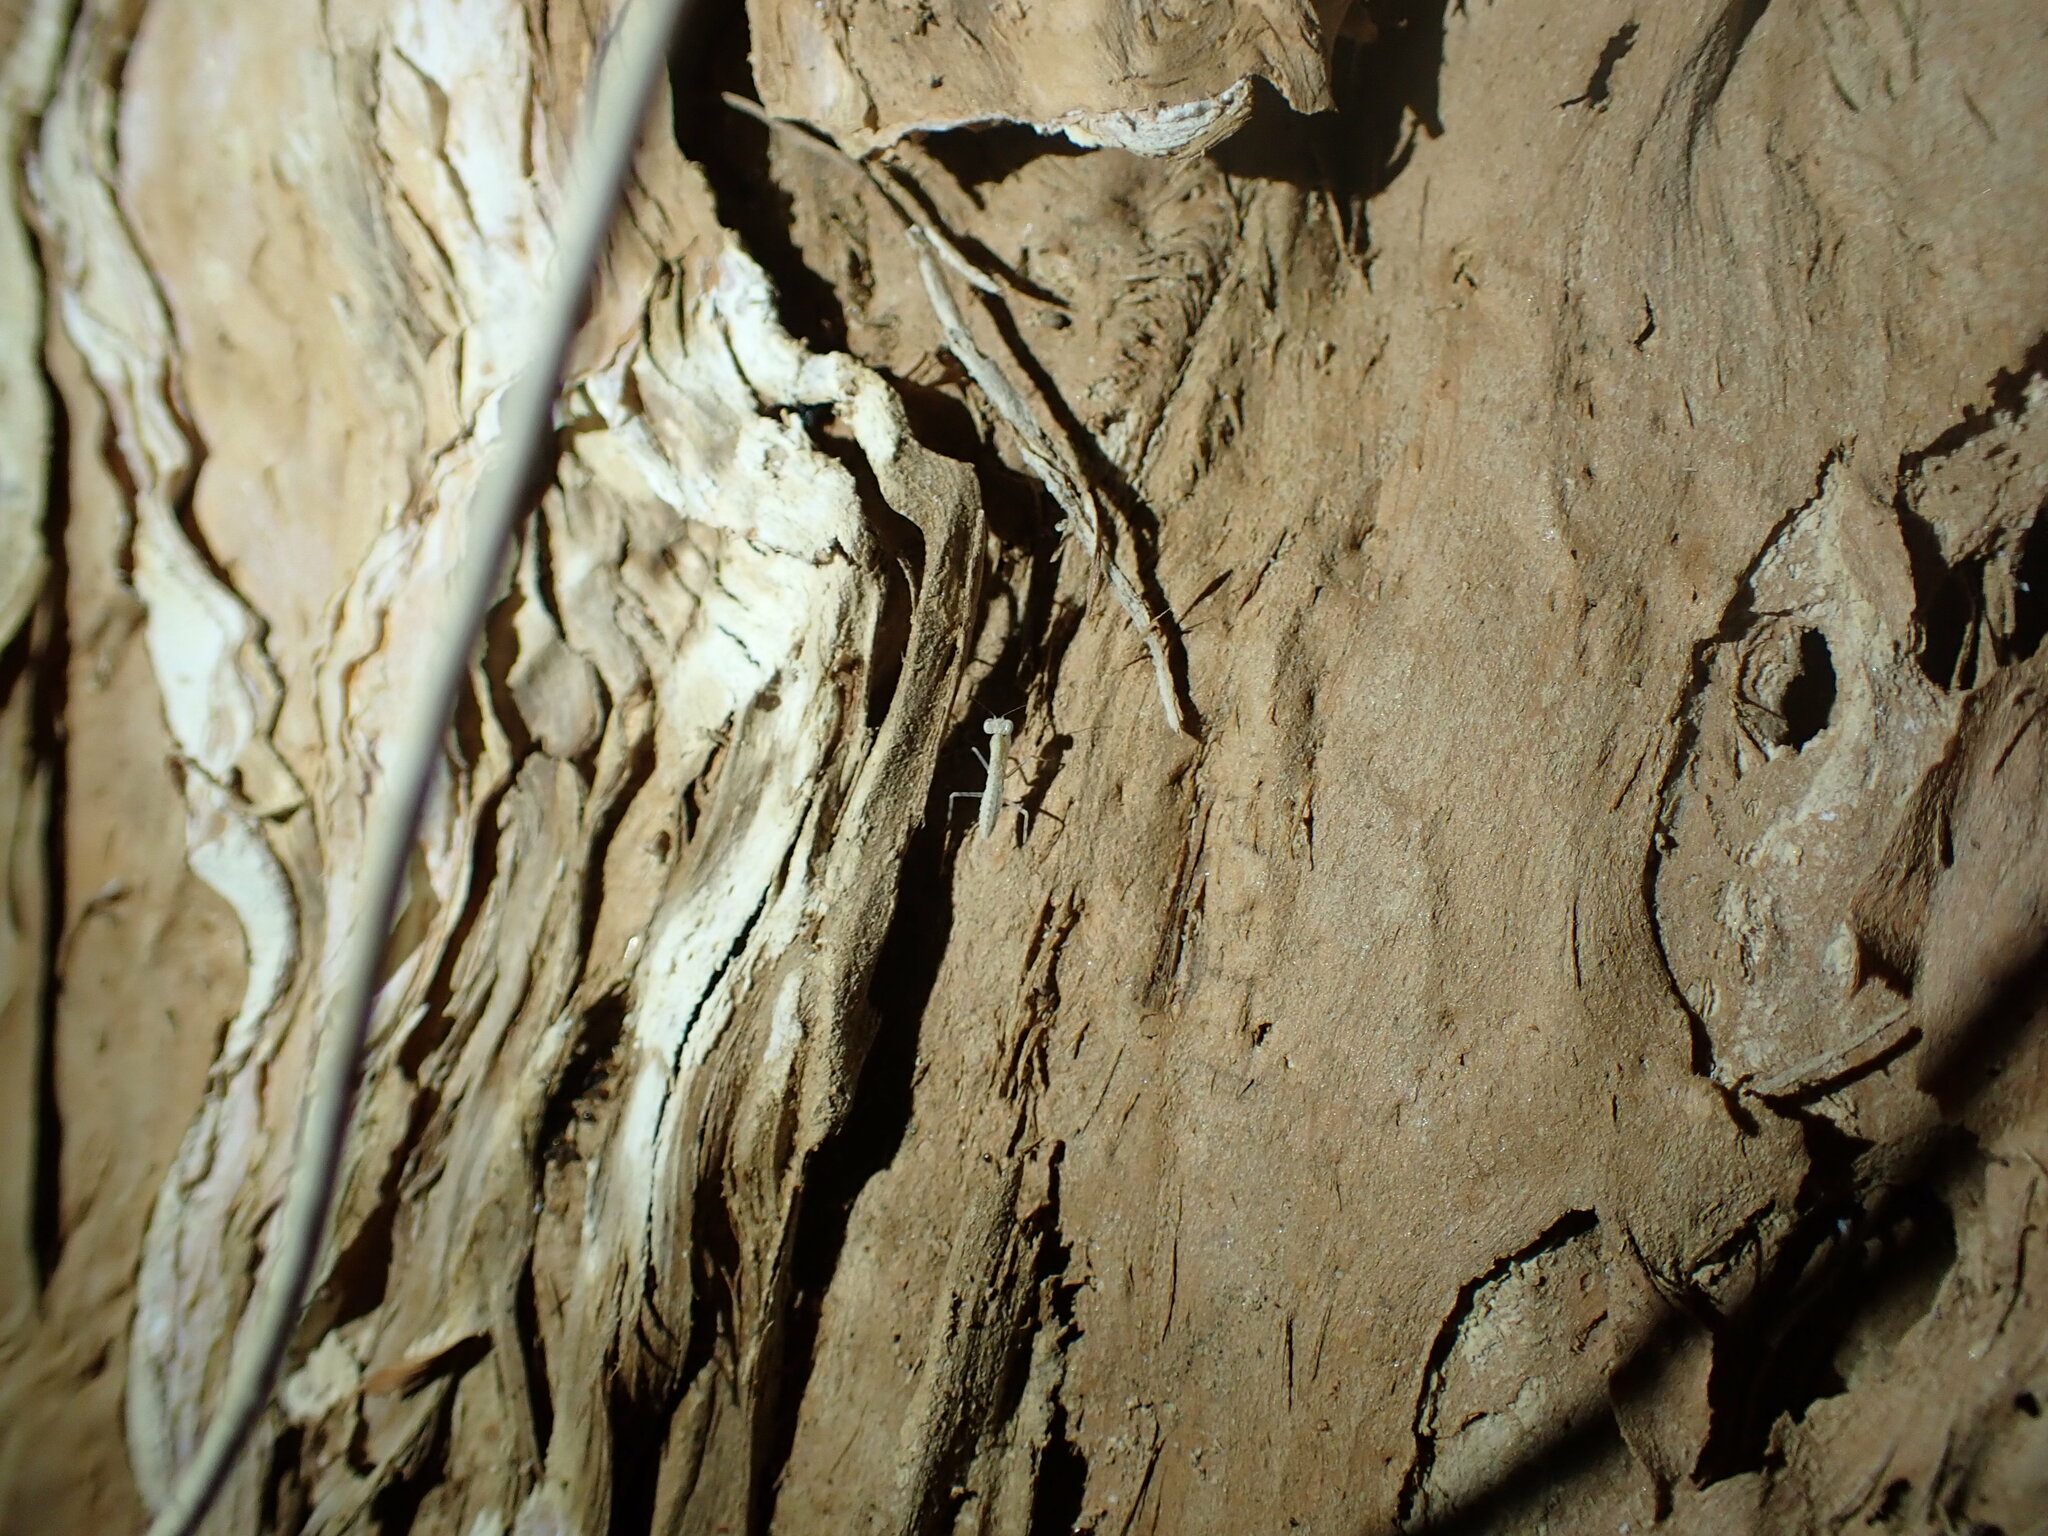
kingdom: Animalia
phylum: Arthropoda
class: Insecta
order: Mantodea
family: Nanomantidae
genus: Ima
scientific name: Ima fusca
